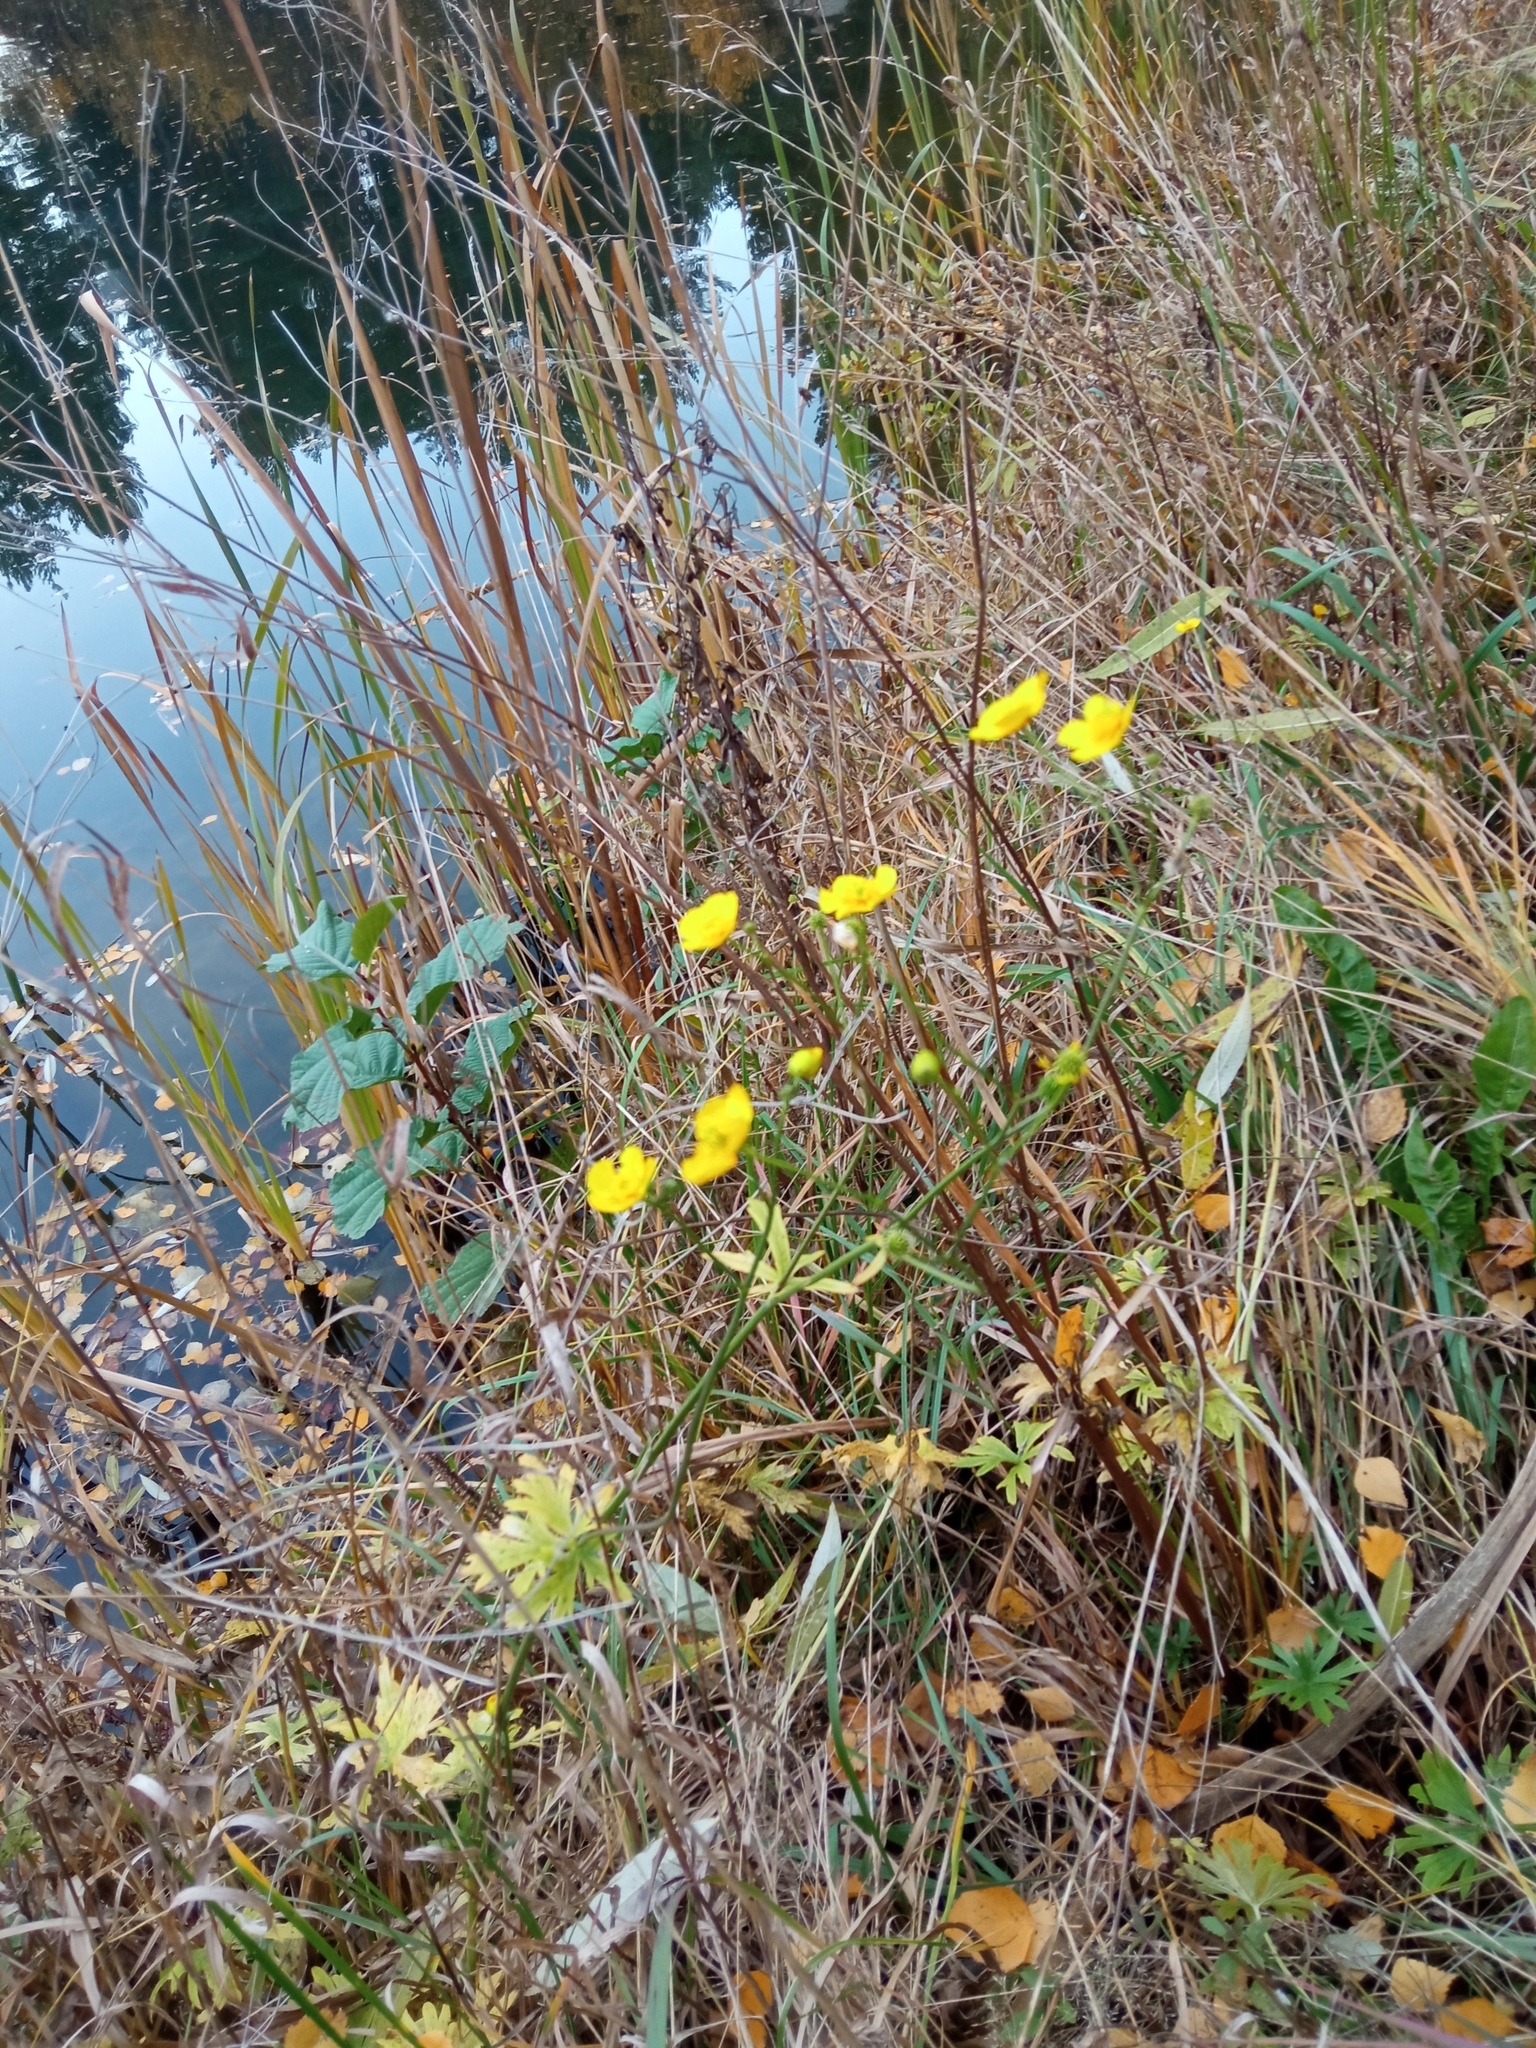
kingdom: Plantae
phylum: Tracheophyta
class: Magnoliopsida
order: Ranunculales
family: Ranunculaceae
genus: Ranunculus
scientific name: Ranunculus acris
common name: Meadow buttercup
